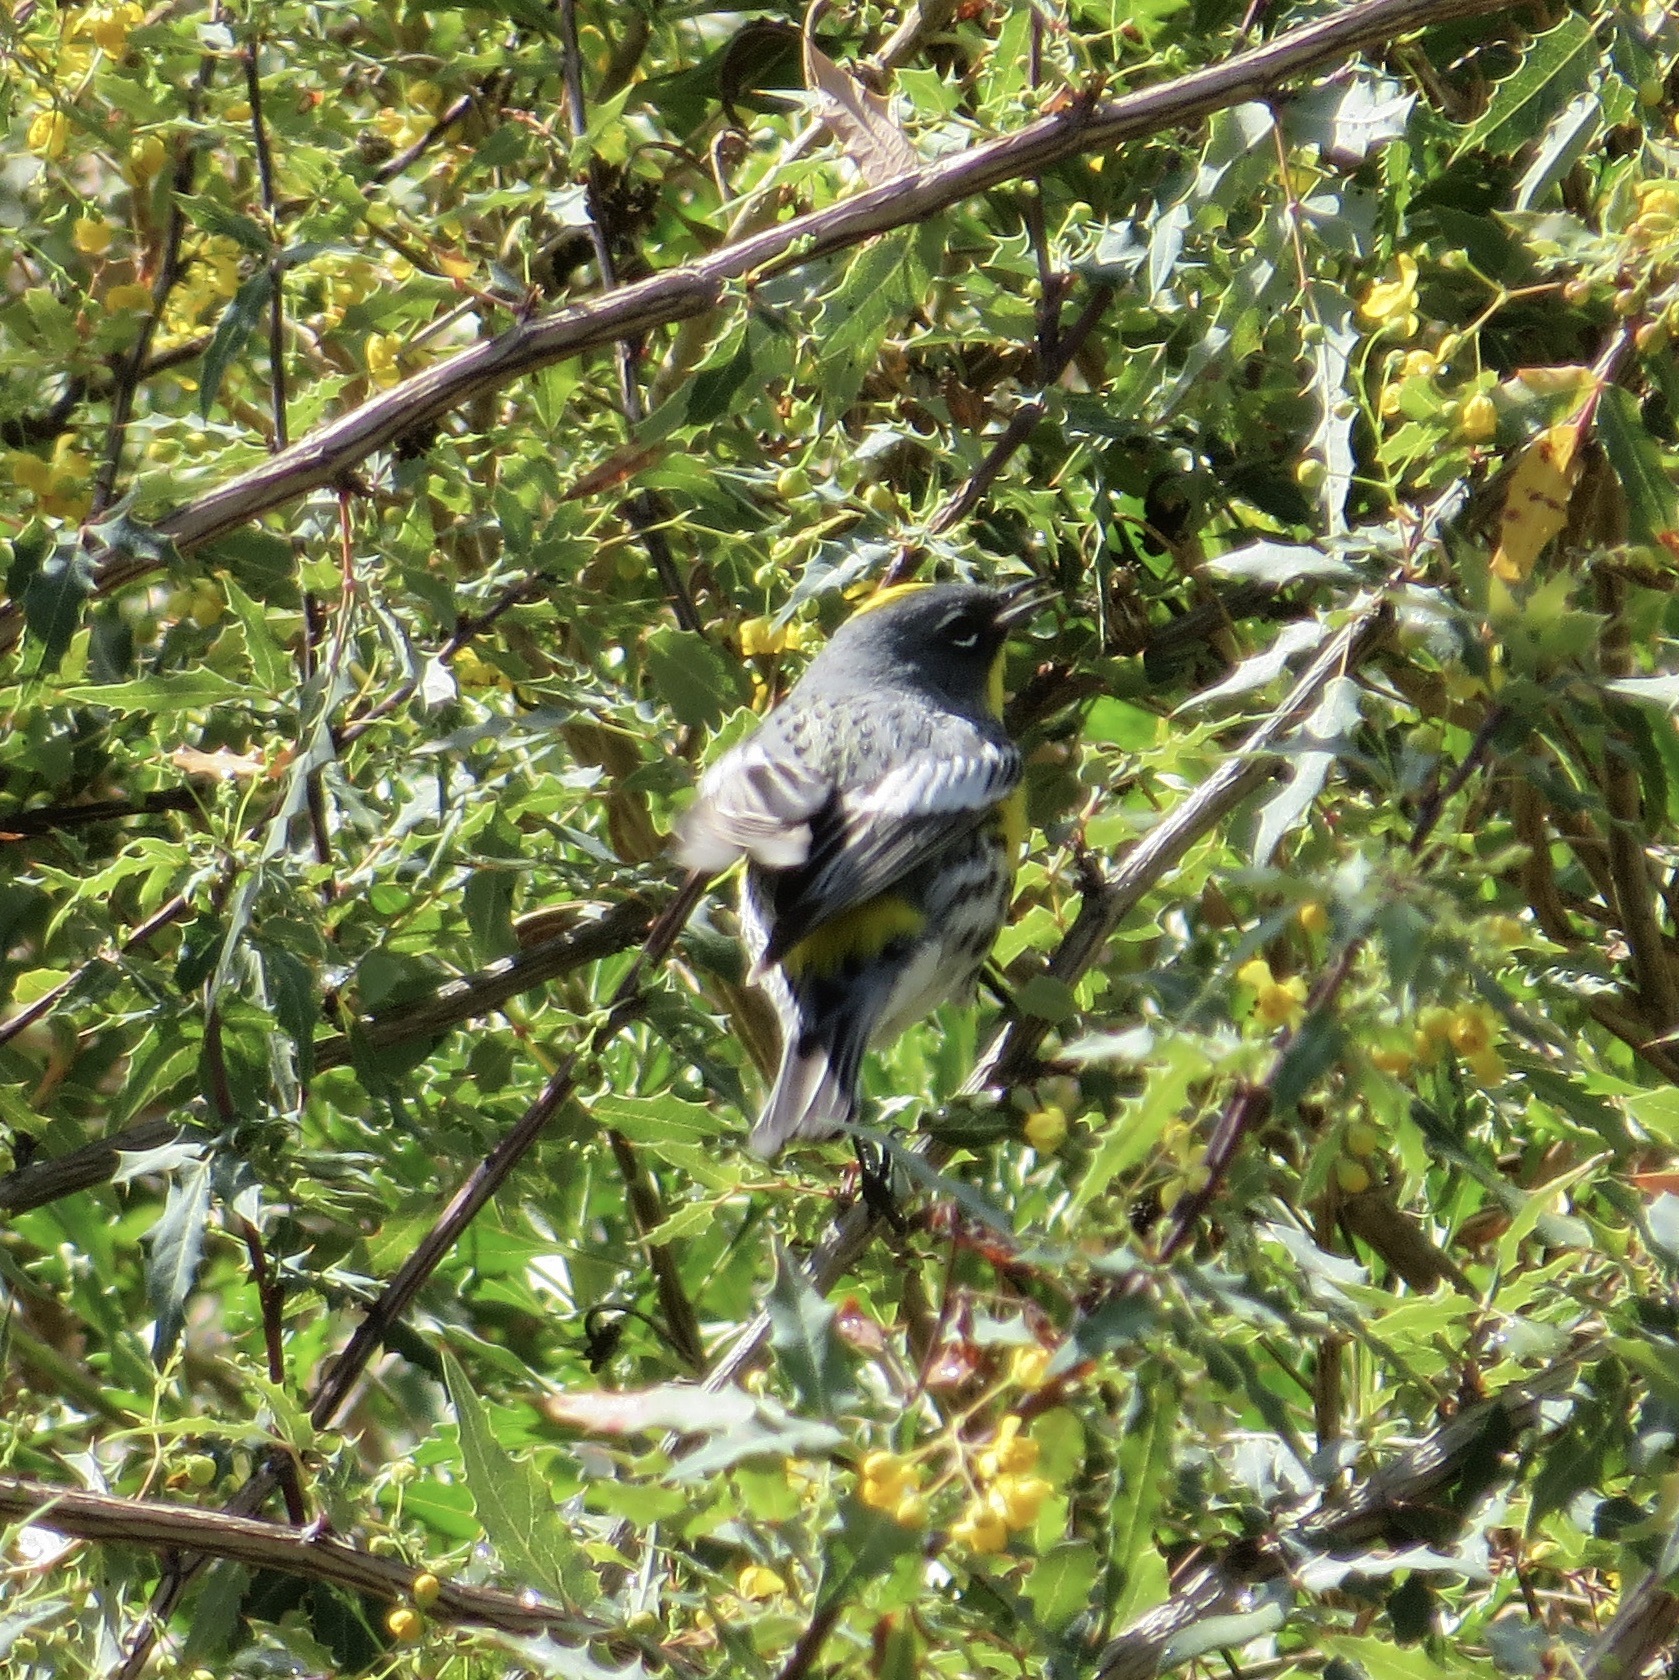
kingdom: Animalia
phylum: Chordata
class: Aves
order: Passeriformes
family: Parulidae
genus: Setophaga
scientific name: Setophaga auduboni
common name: Audubon's warbler
